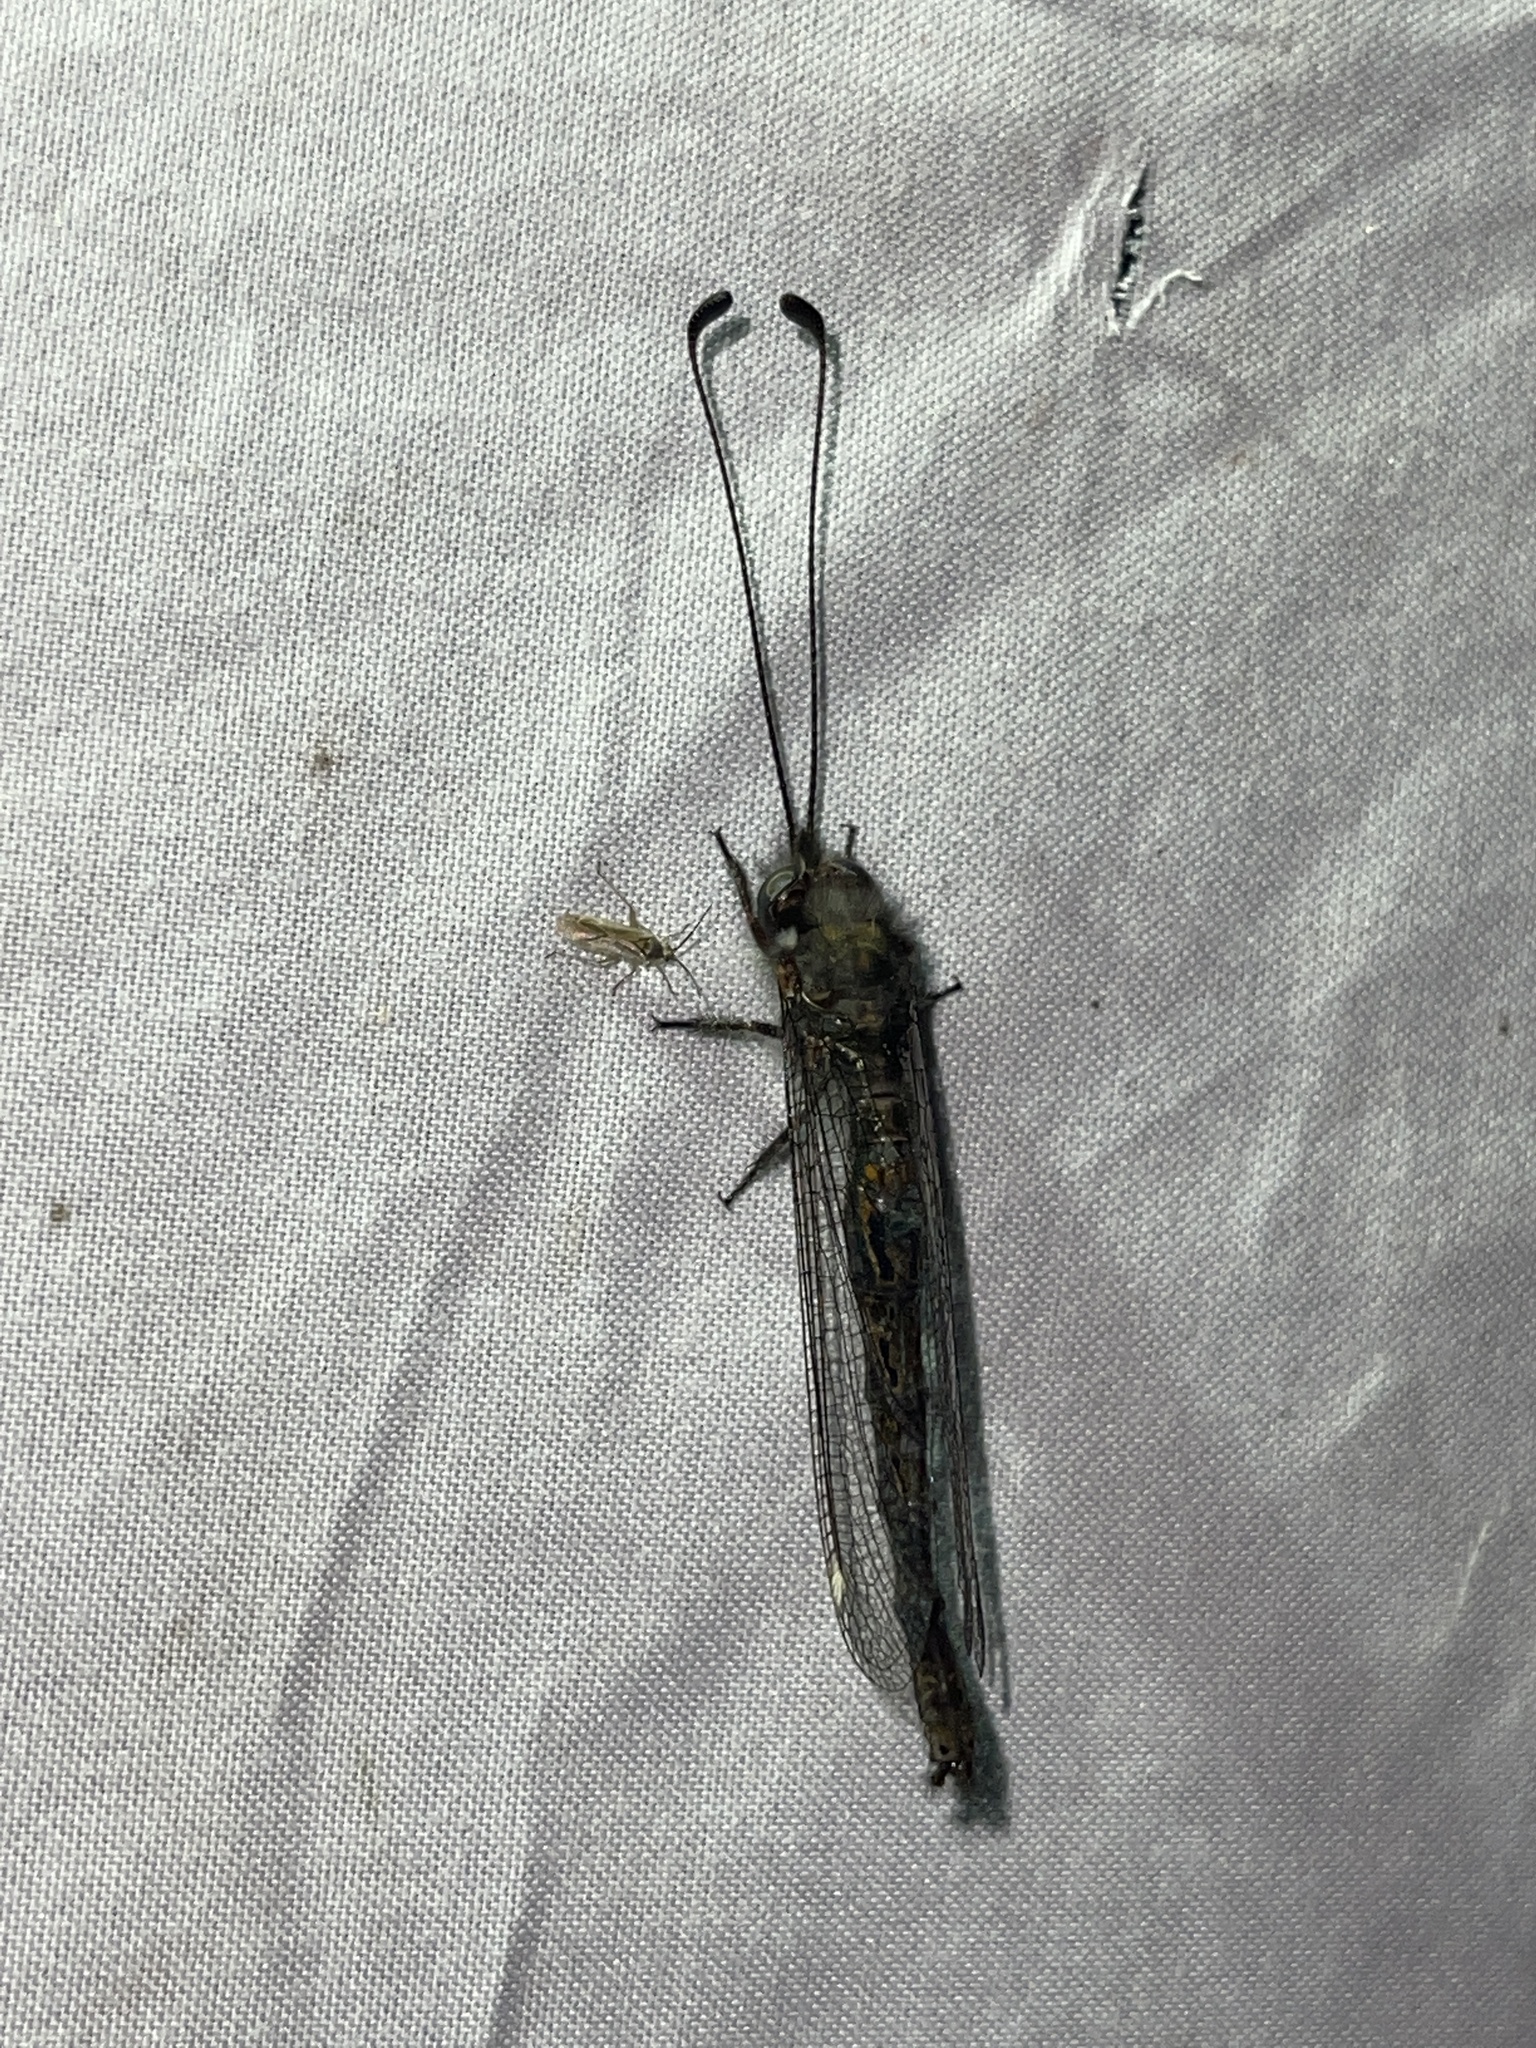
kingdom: Animalia
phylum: Arthropoda
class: Insecta
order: Neuroptera
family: Ascalaphidae
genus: Ululodes
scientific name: Ululodes quadripunctatus
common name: Four-spotted owlfly
